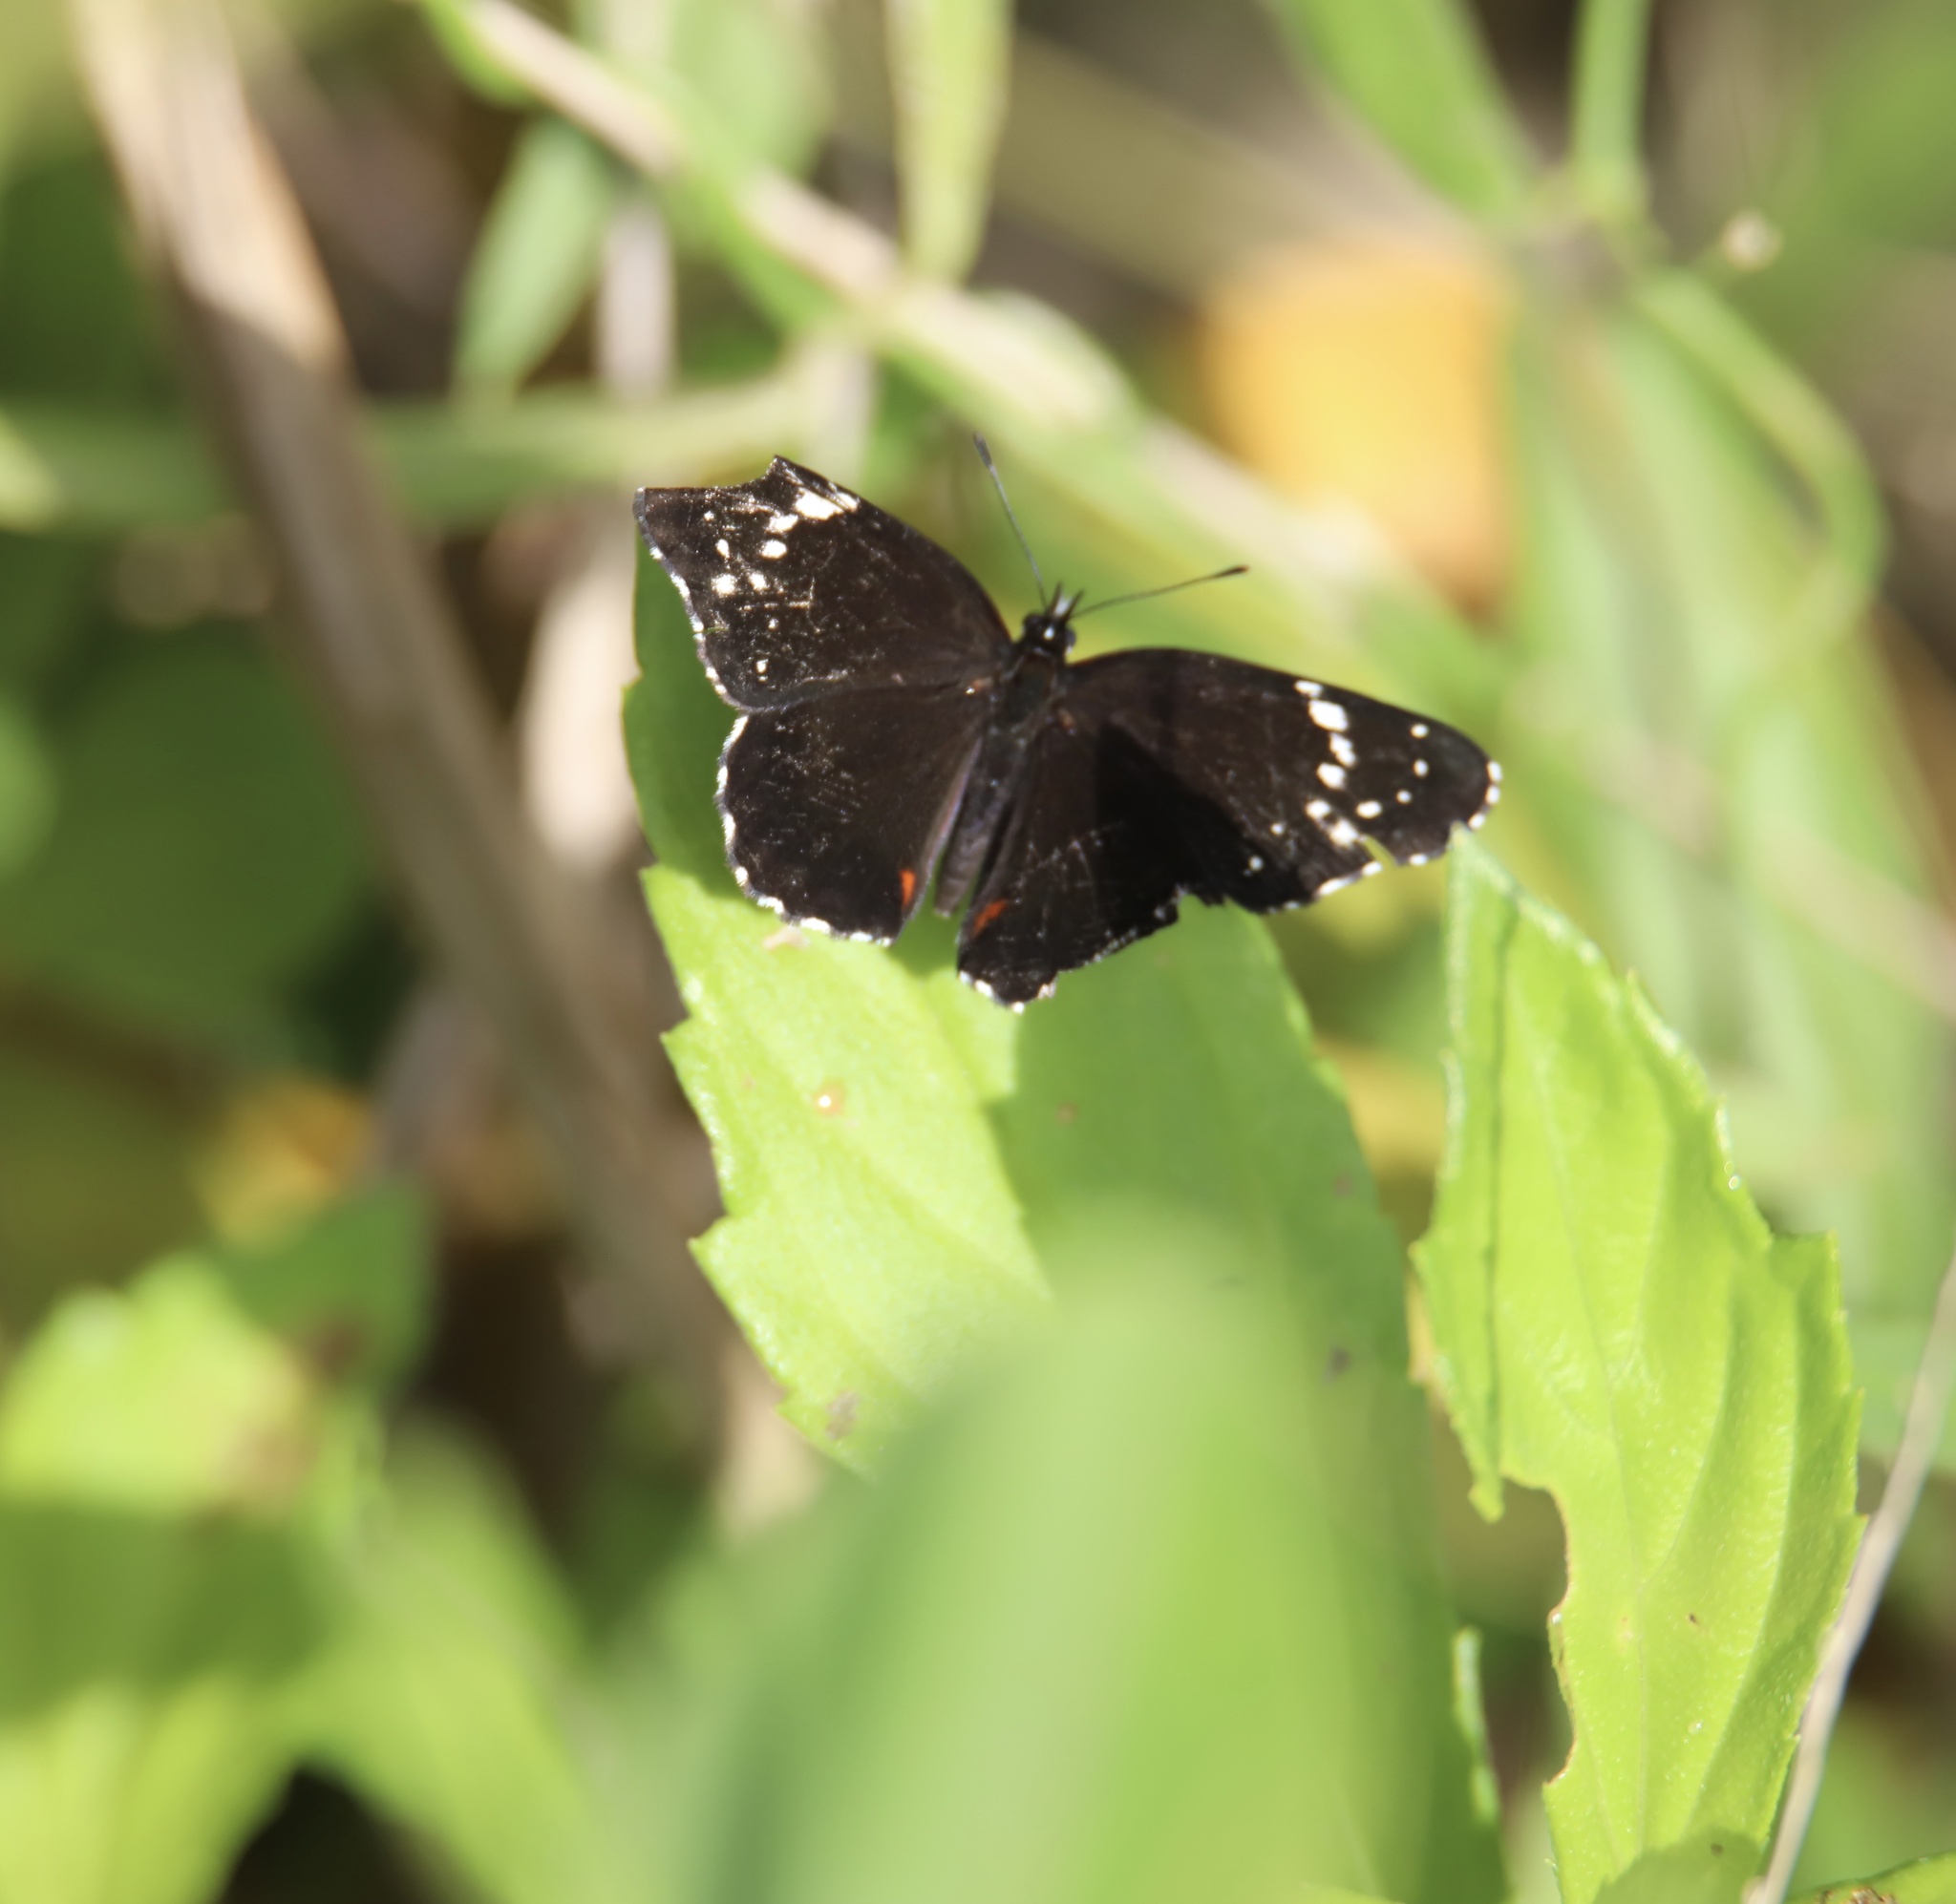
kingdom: Animalia
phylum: Arthropoda
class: Insecta
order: Lepidoptera
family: Nymphalidae
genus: Chlosyne
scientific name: Chlosyne lacinia
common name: Bordered patch
